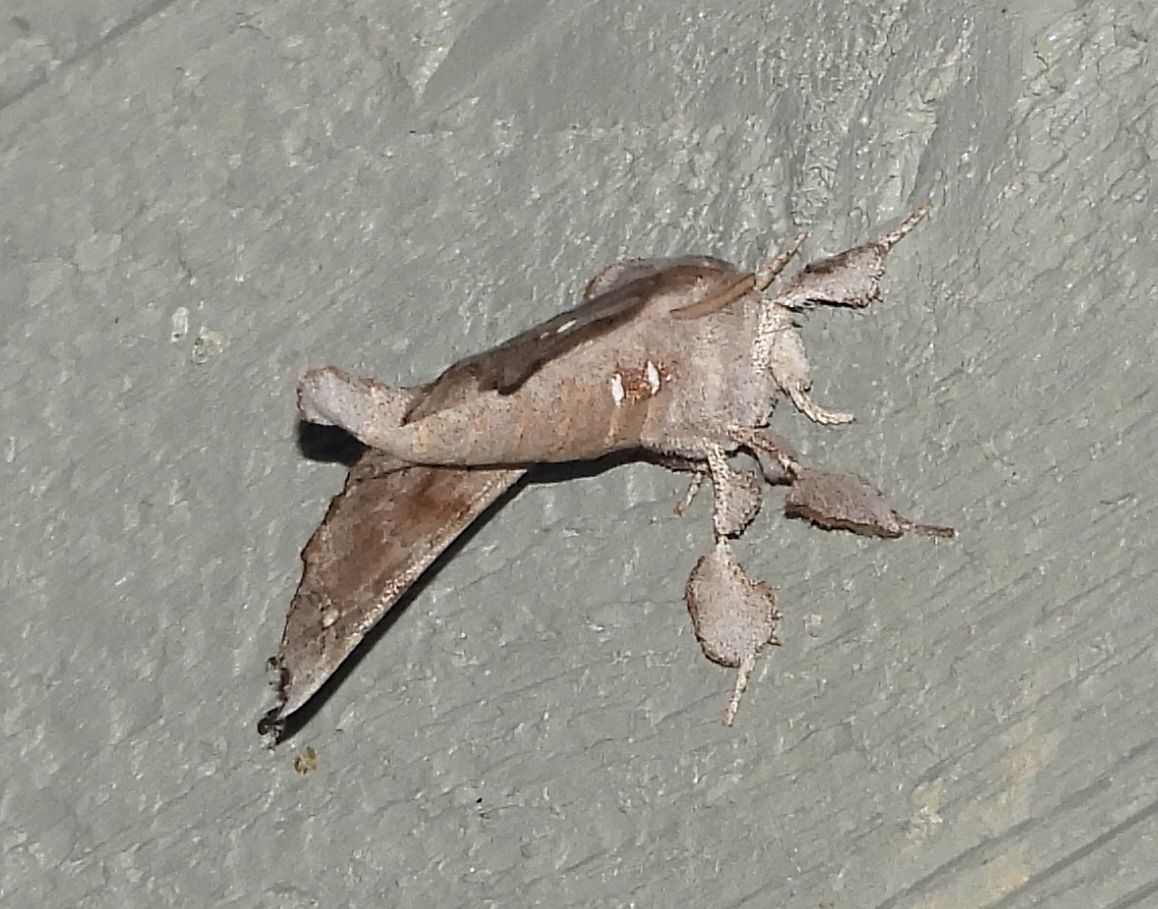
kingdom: Animalia
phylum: Arthropoda
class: Insecta
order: Lepidoptera
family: Apatelodidae
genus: Olceclostera
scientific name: Olceclostera angelica
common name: Angel moth
